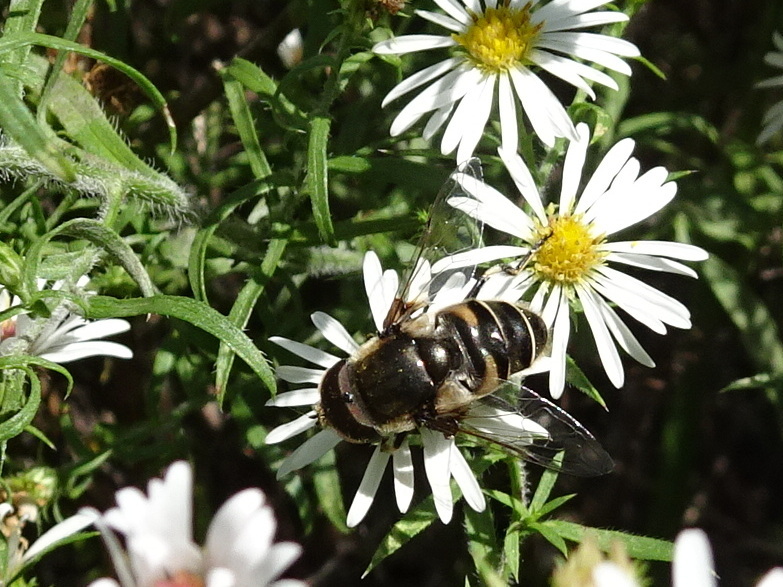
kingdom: Animalia
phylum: Arthropoda
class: Insecta
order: Diptera
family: Syrphidae
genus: Eristalis
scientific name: Eristalis dimidiata
